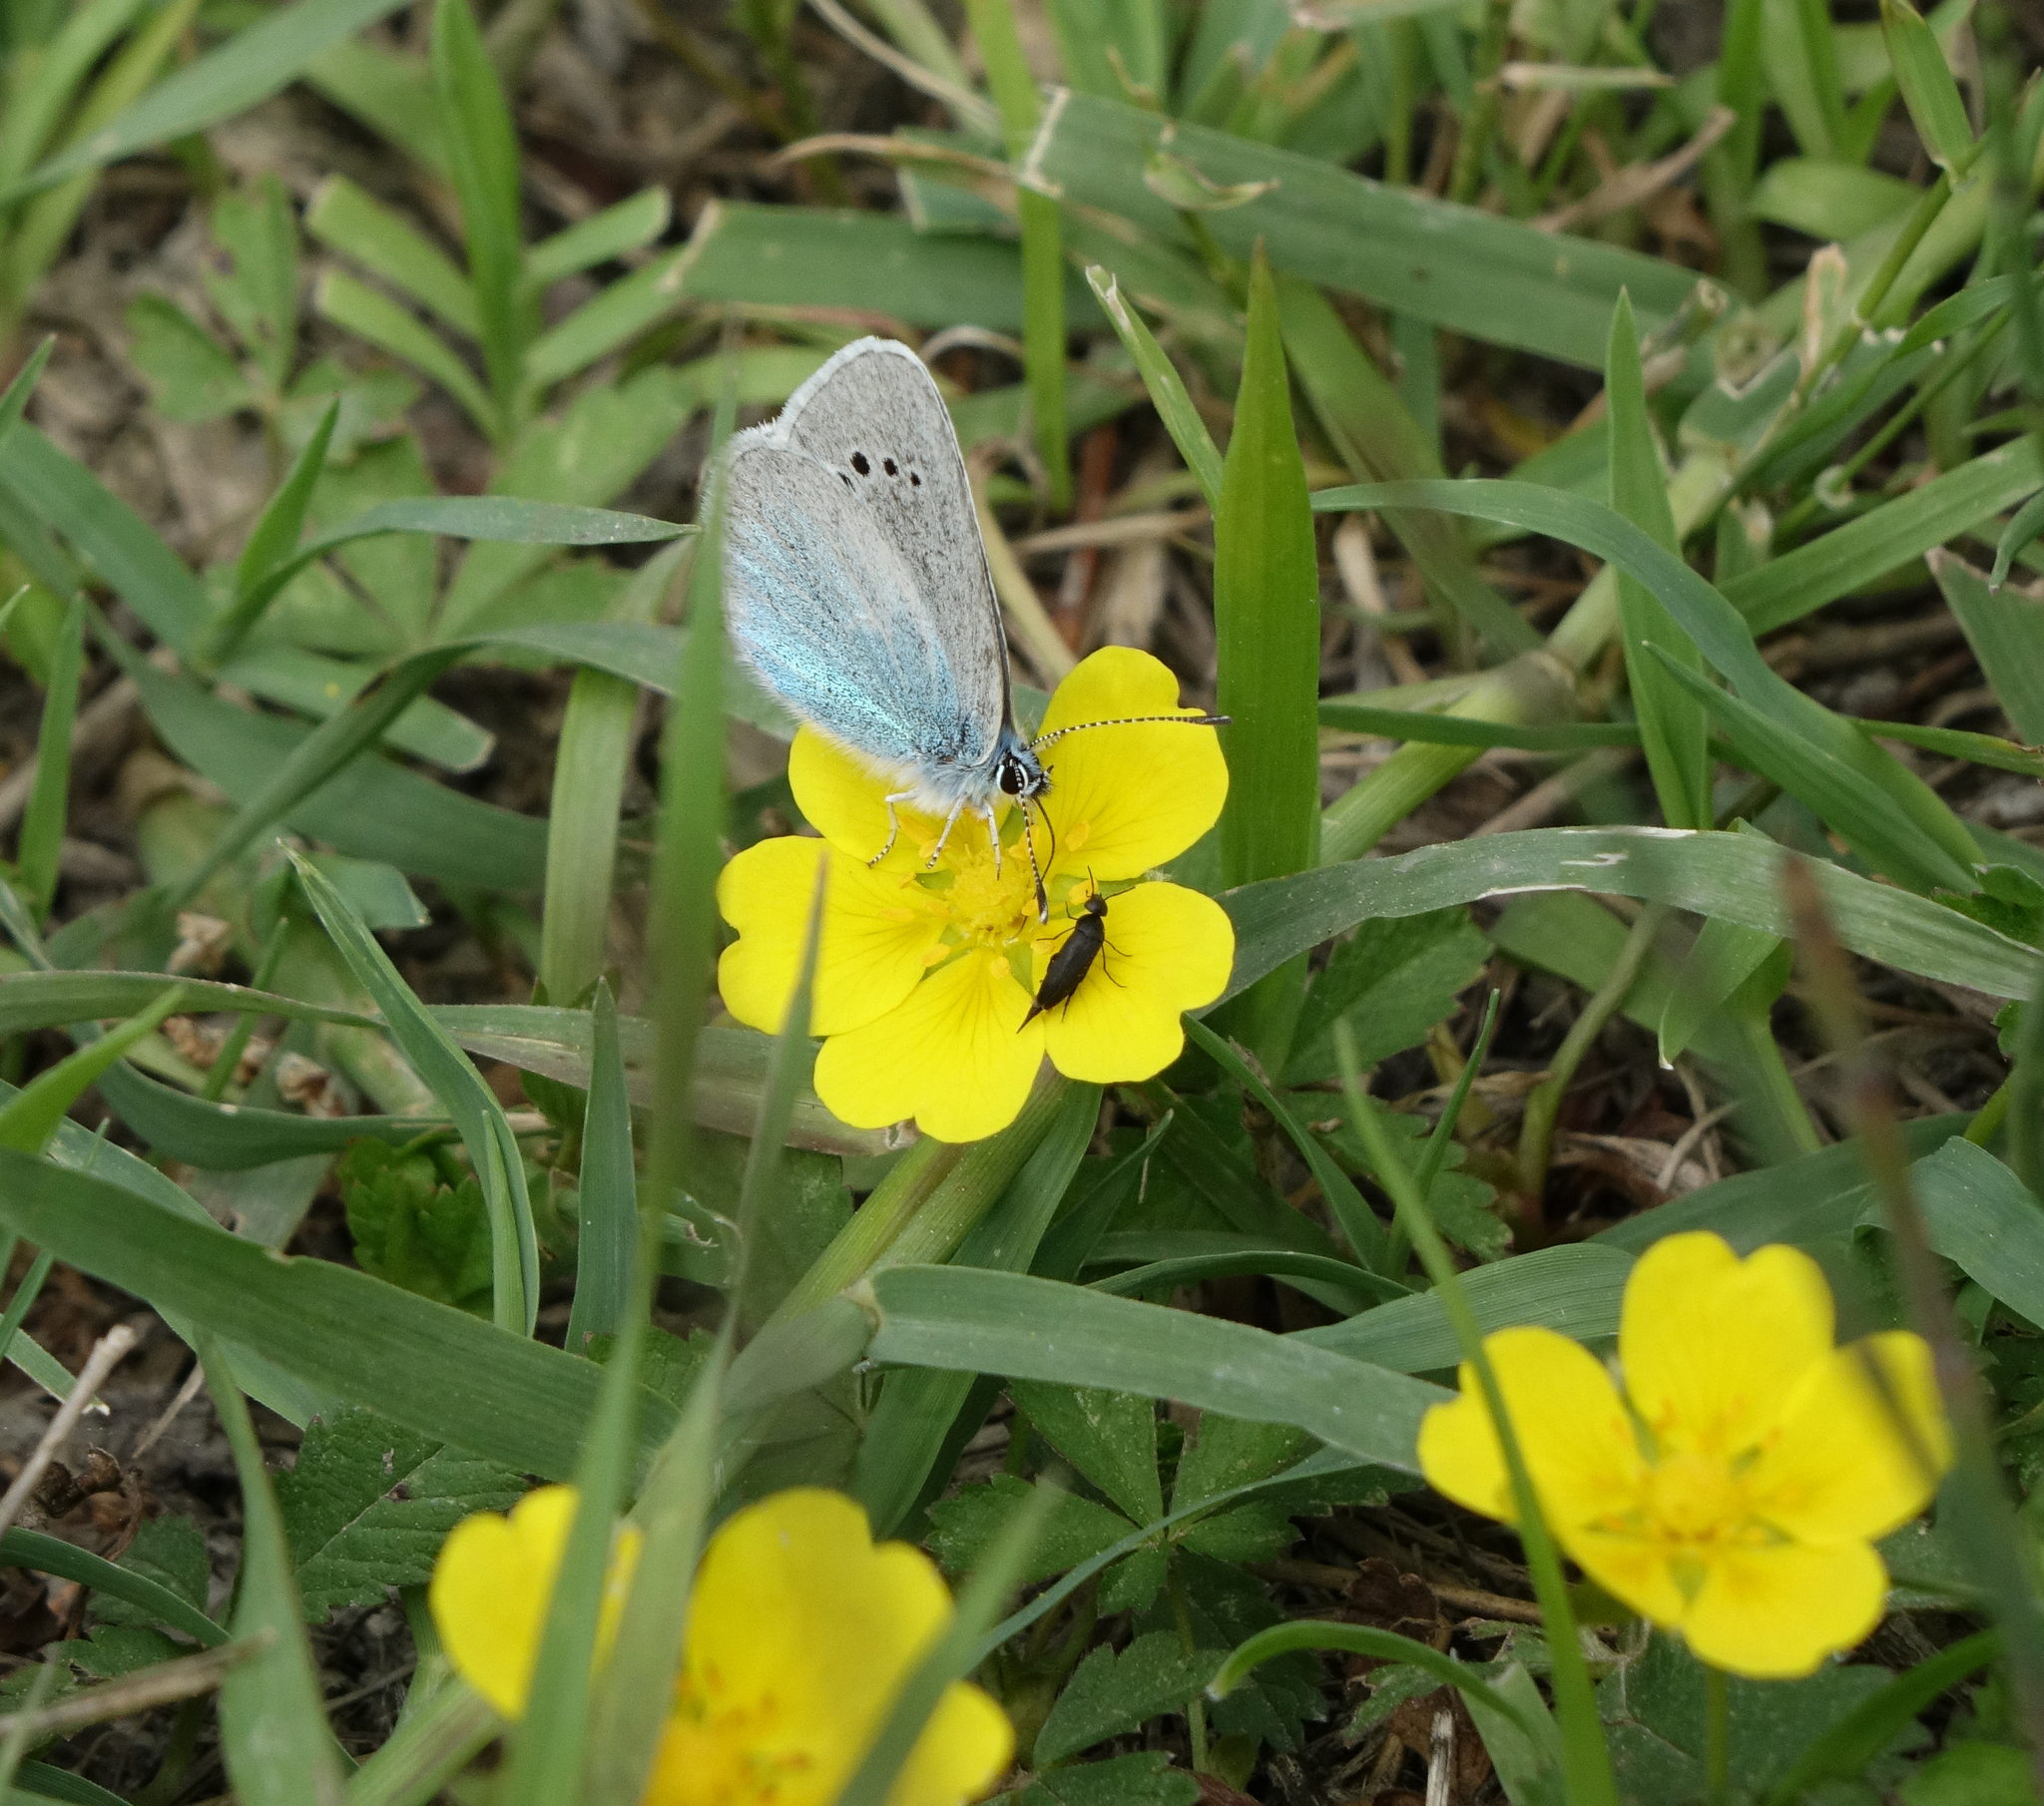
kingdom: Plantae
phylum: Tracheophyta
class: Magnoliopsida
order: Rosales
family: Rosaceae
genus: Potentilla
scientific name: Potentilla reptans
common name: Creeping cinquefoil
